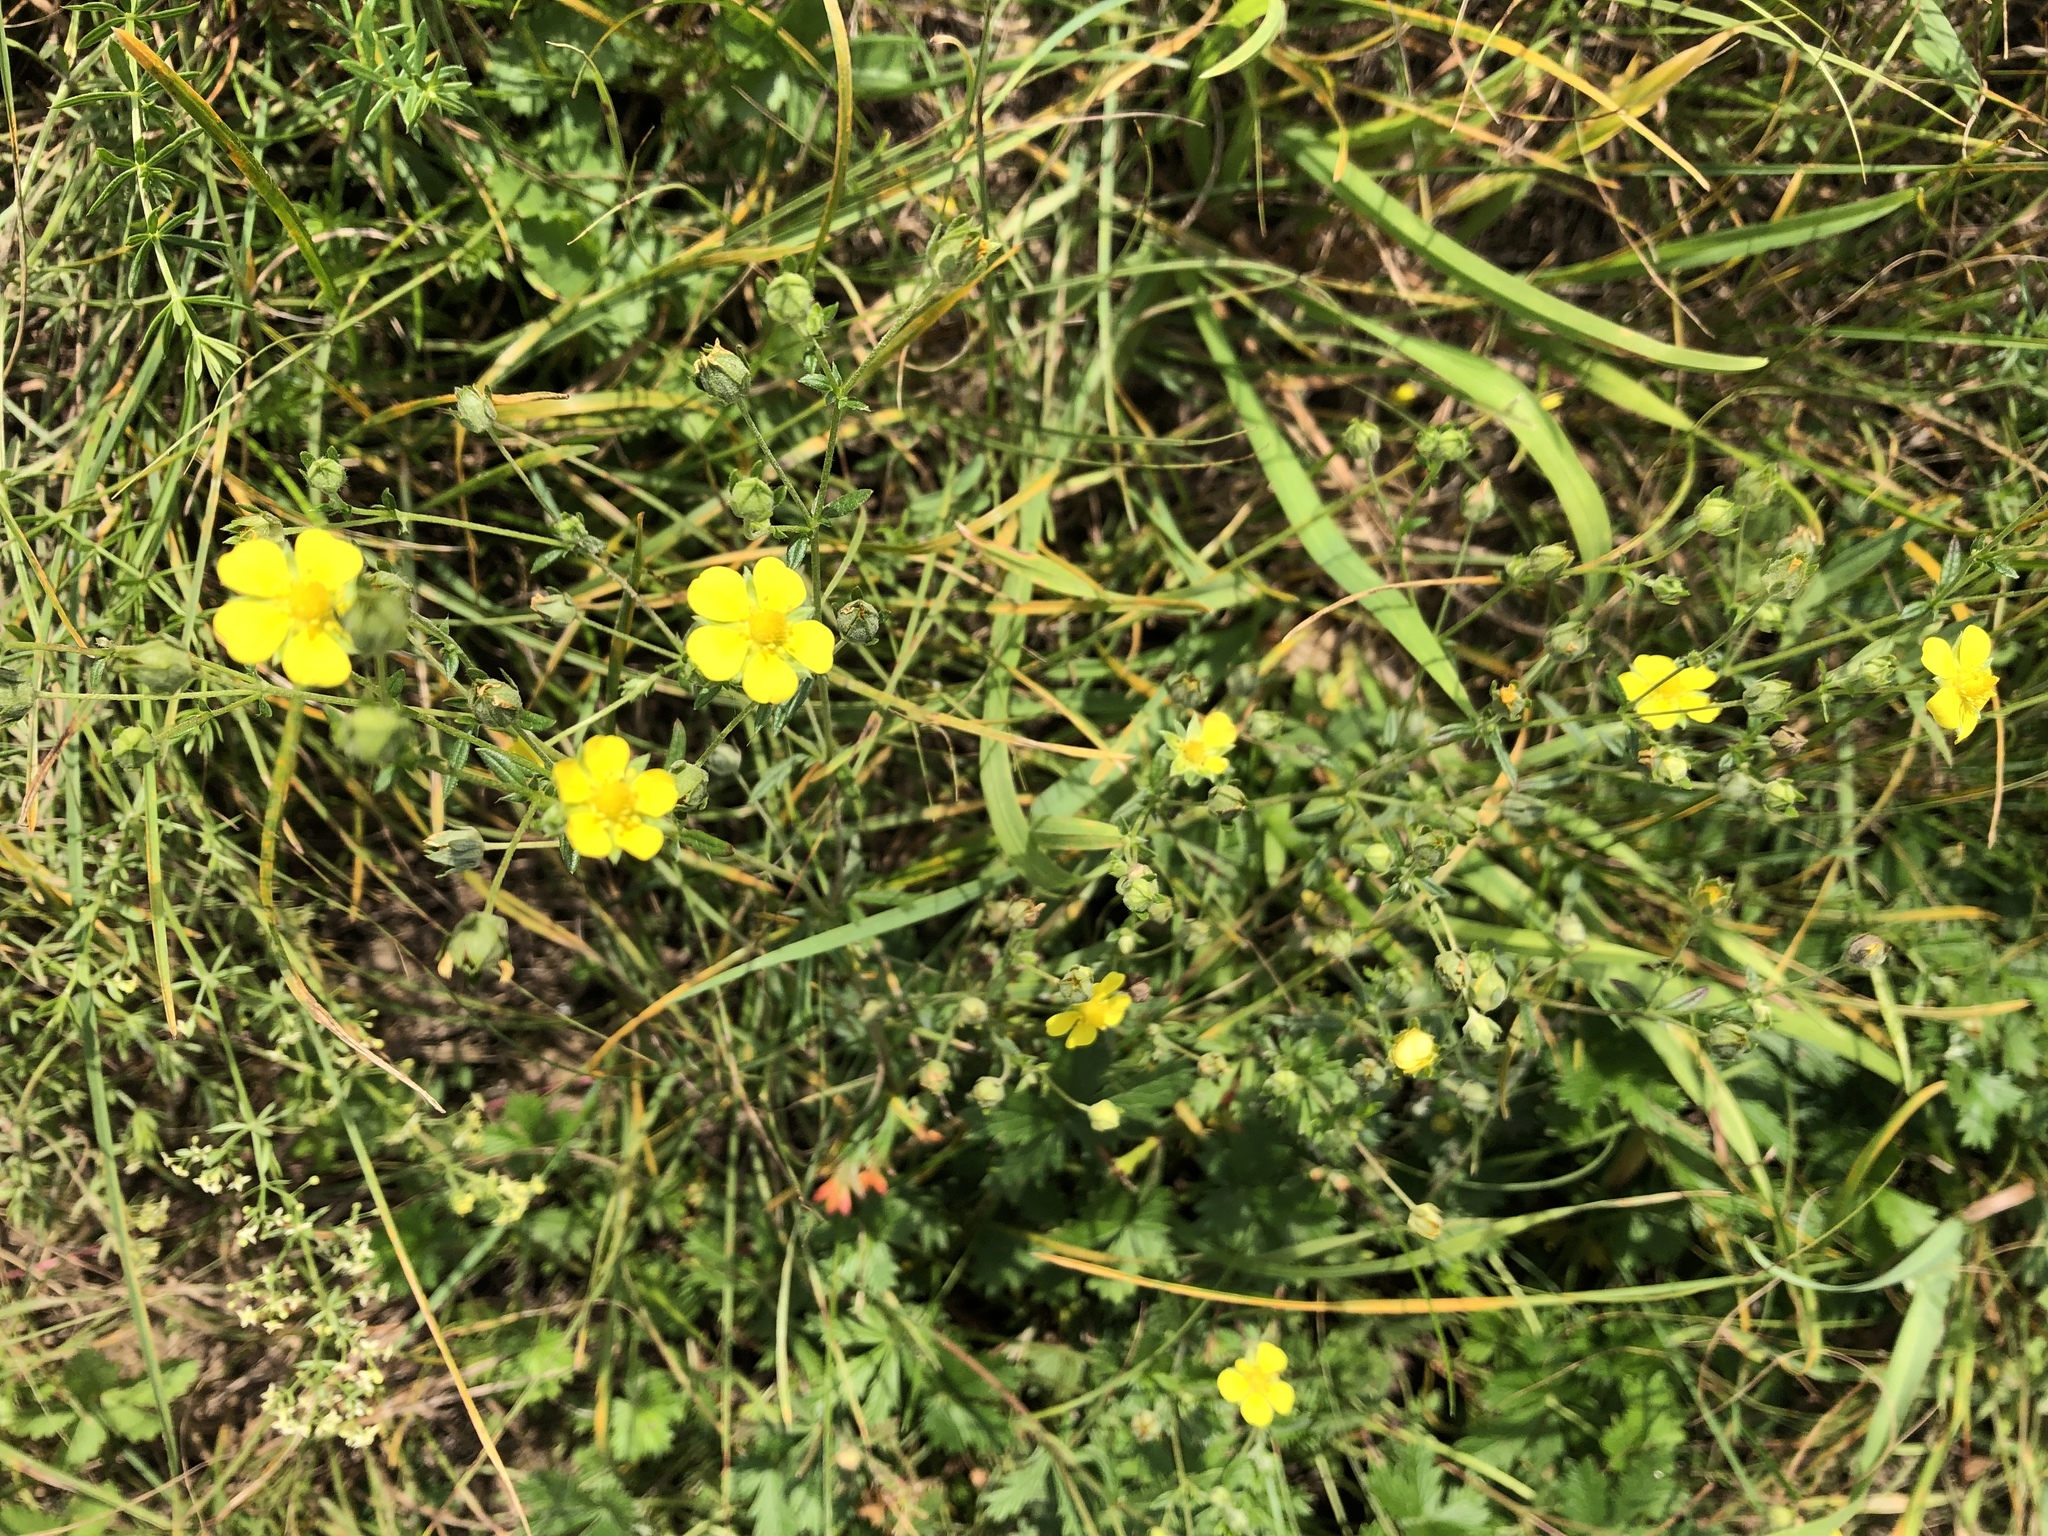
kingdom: Plantae
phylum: Tracheophyta
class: Magnoliopsida
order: Rosales
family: Rosaceae
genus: Potentilla
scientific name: Potentilla argentea
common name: Hoary cinquefoil
